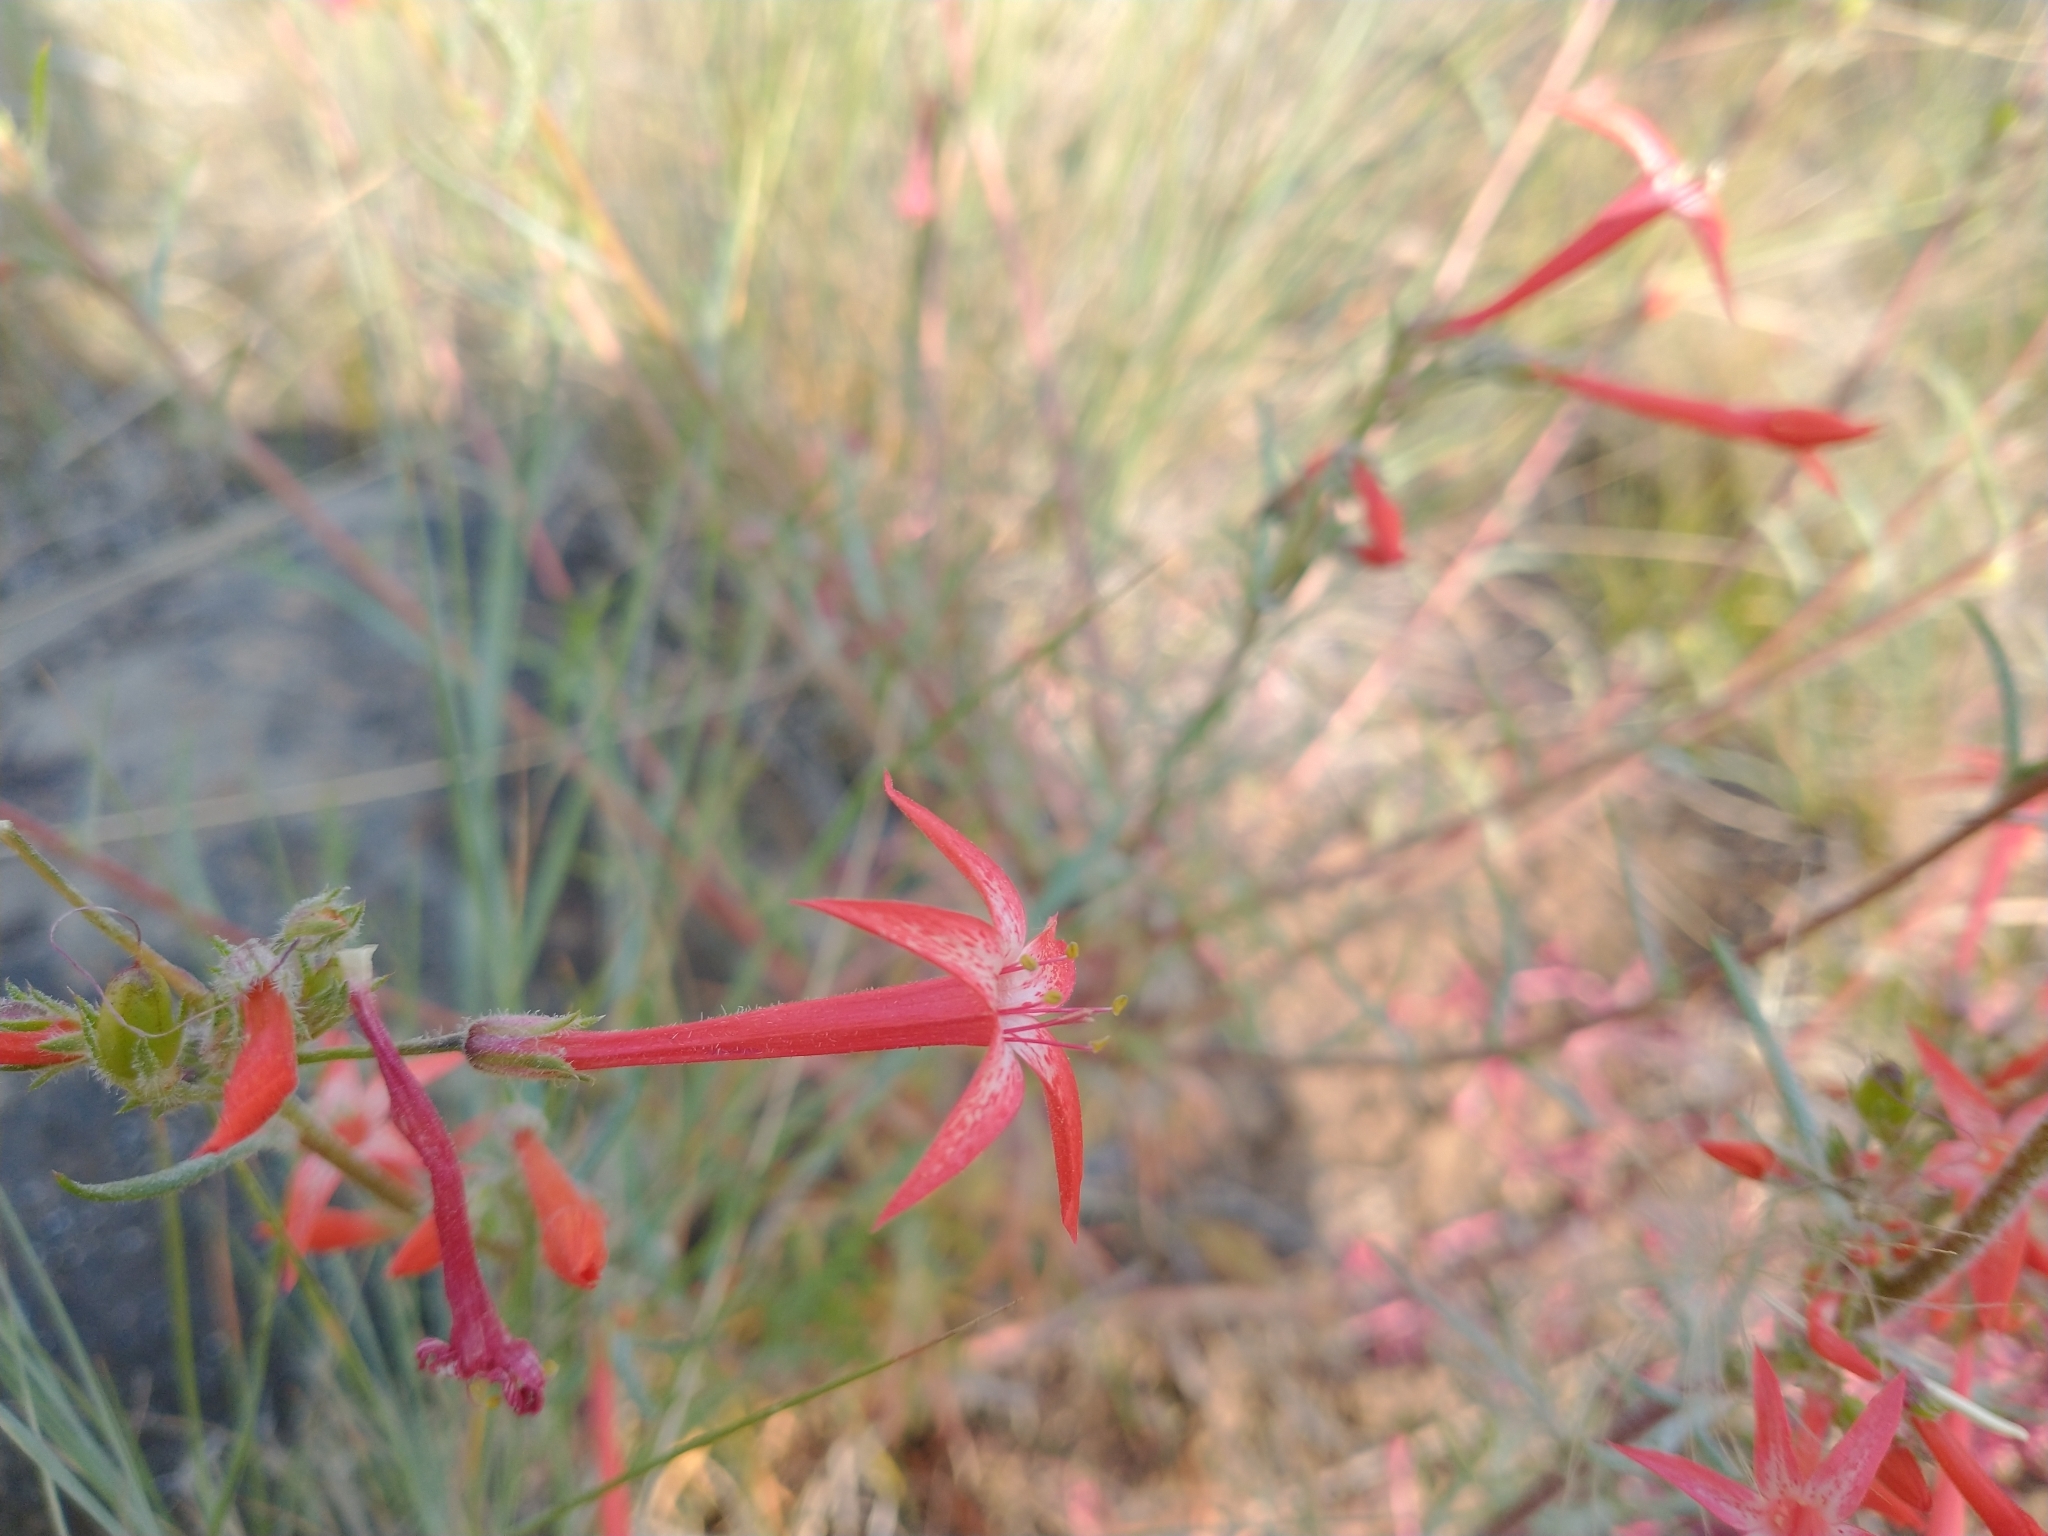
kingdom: Plantae
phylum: Tracheophyta
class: Magnoliopsida
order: Ericales
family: Polemoniaceae
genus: Ipomopsis
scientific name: Ipomopsis aggregata
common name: Scarlet gilia
